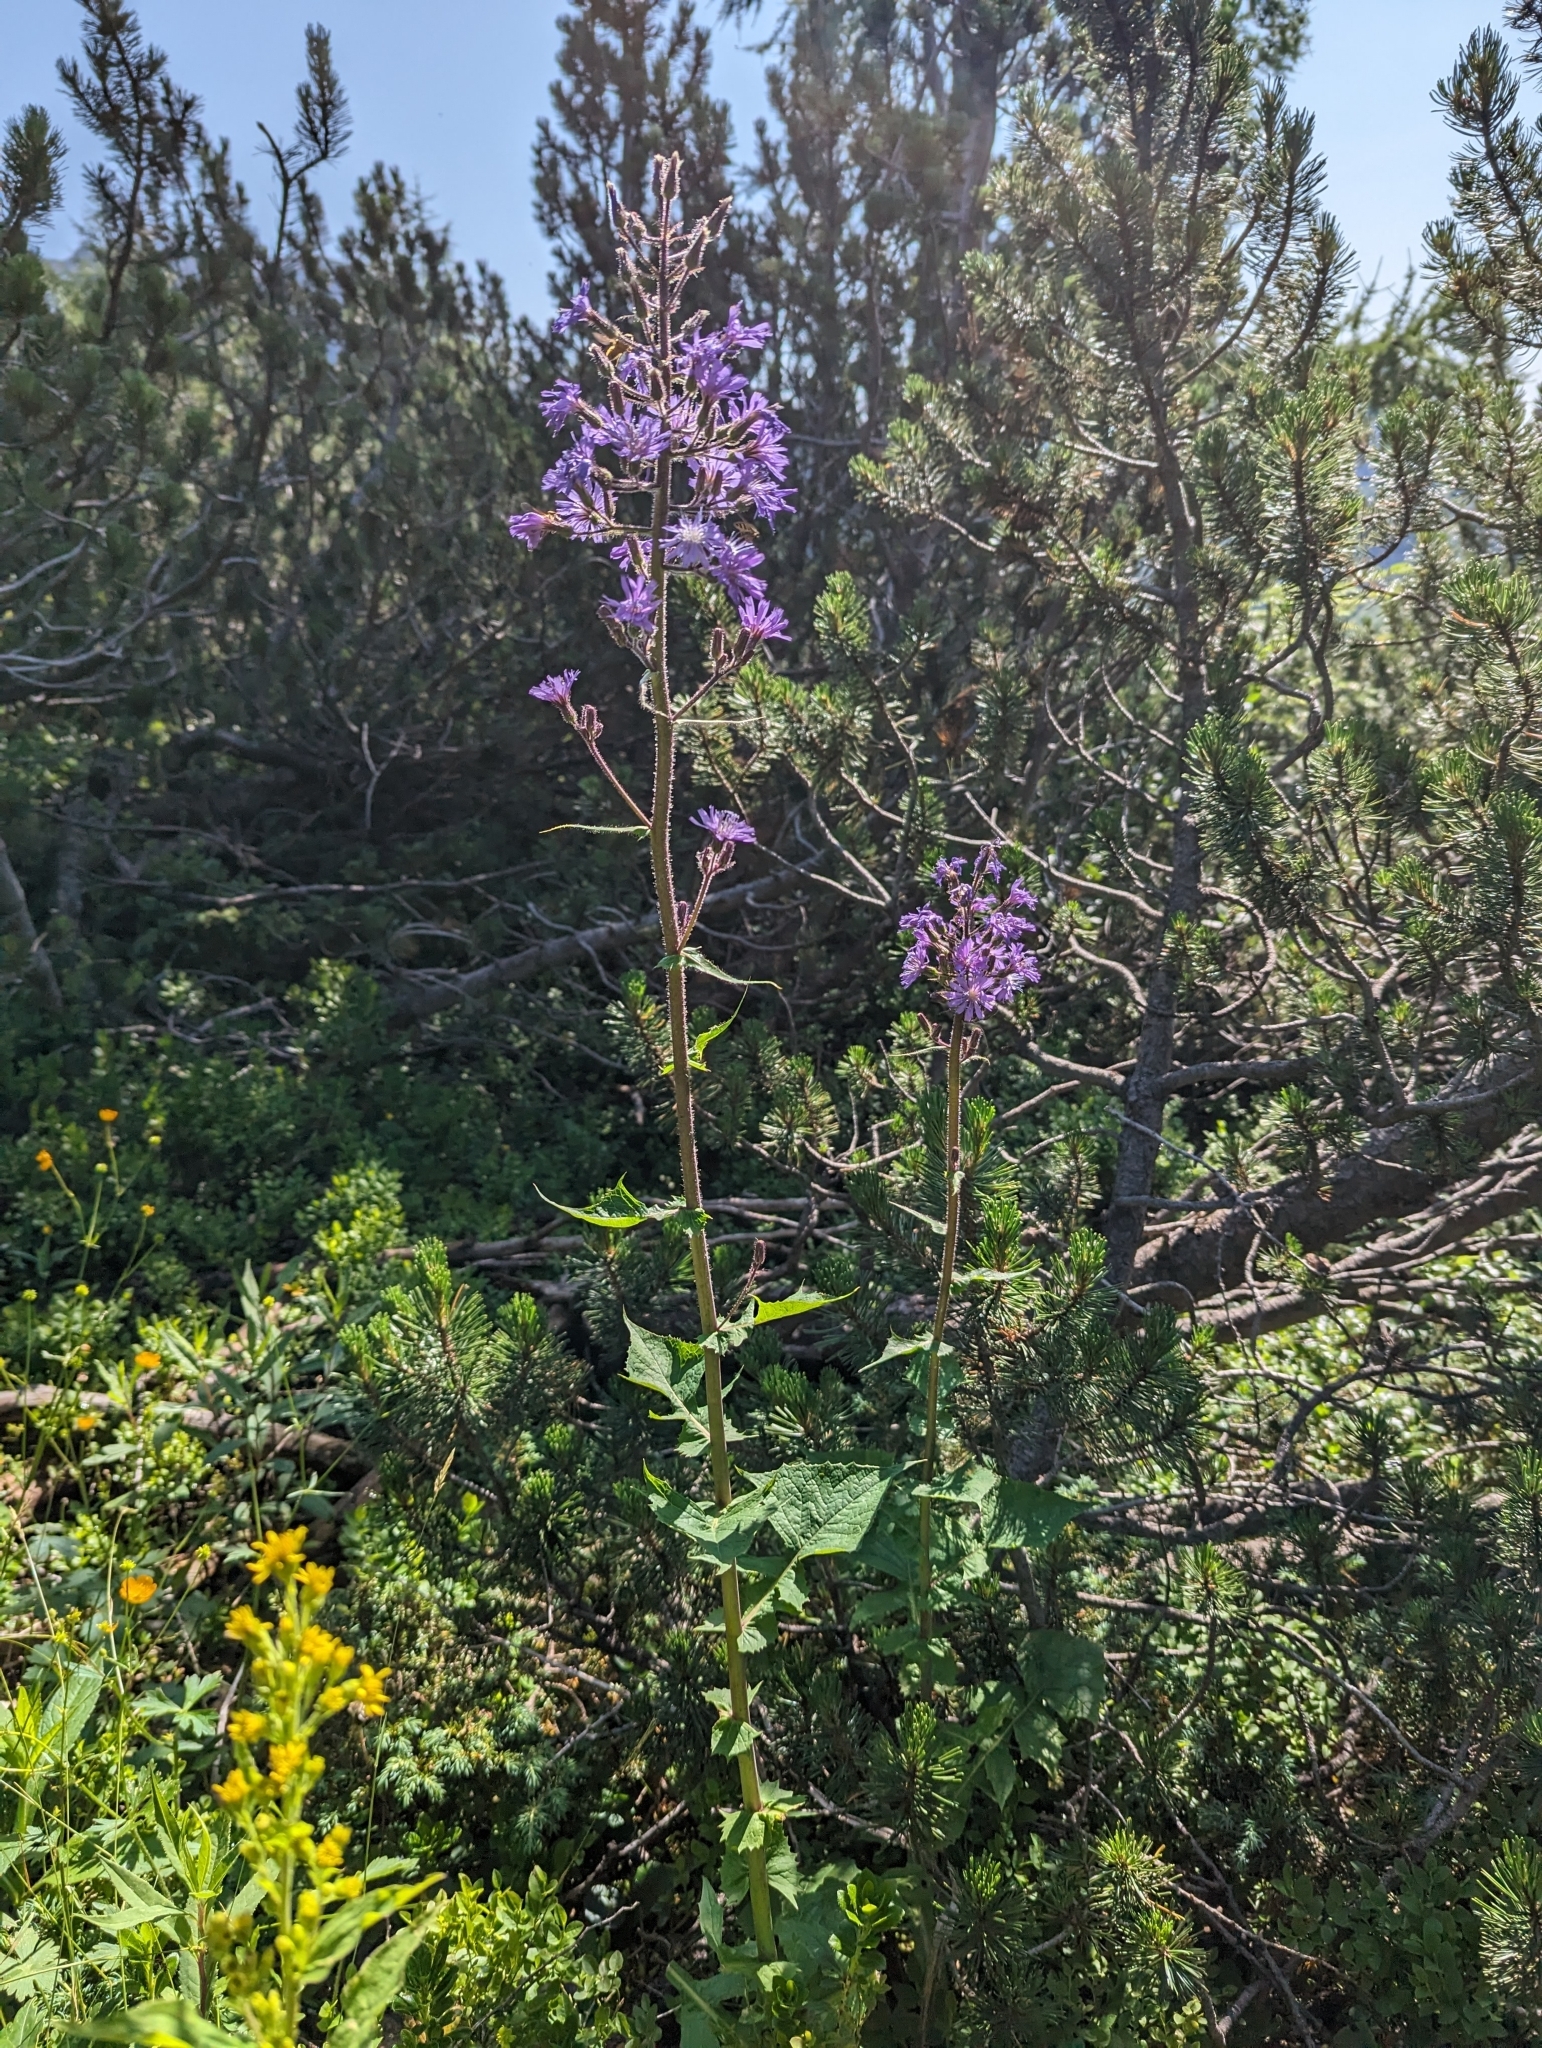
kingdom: Plantae
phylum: Tracheophyta
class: Magnoliopsida
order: Asterales
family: Asteraceae
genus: Cicerbita
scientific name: Cicerbita alpina
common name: Alpine blue-sow-thistle
